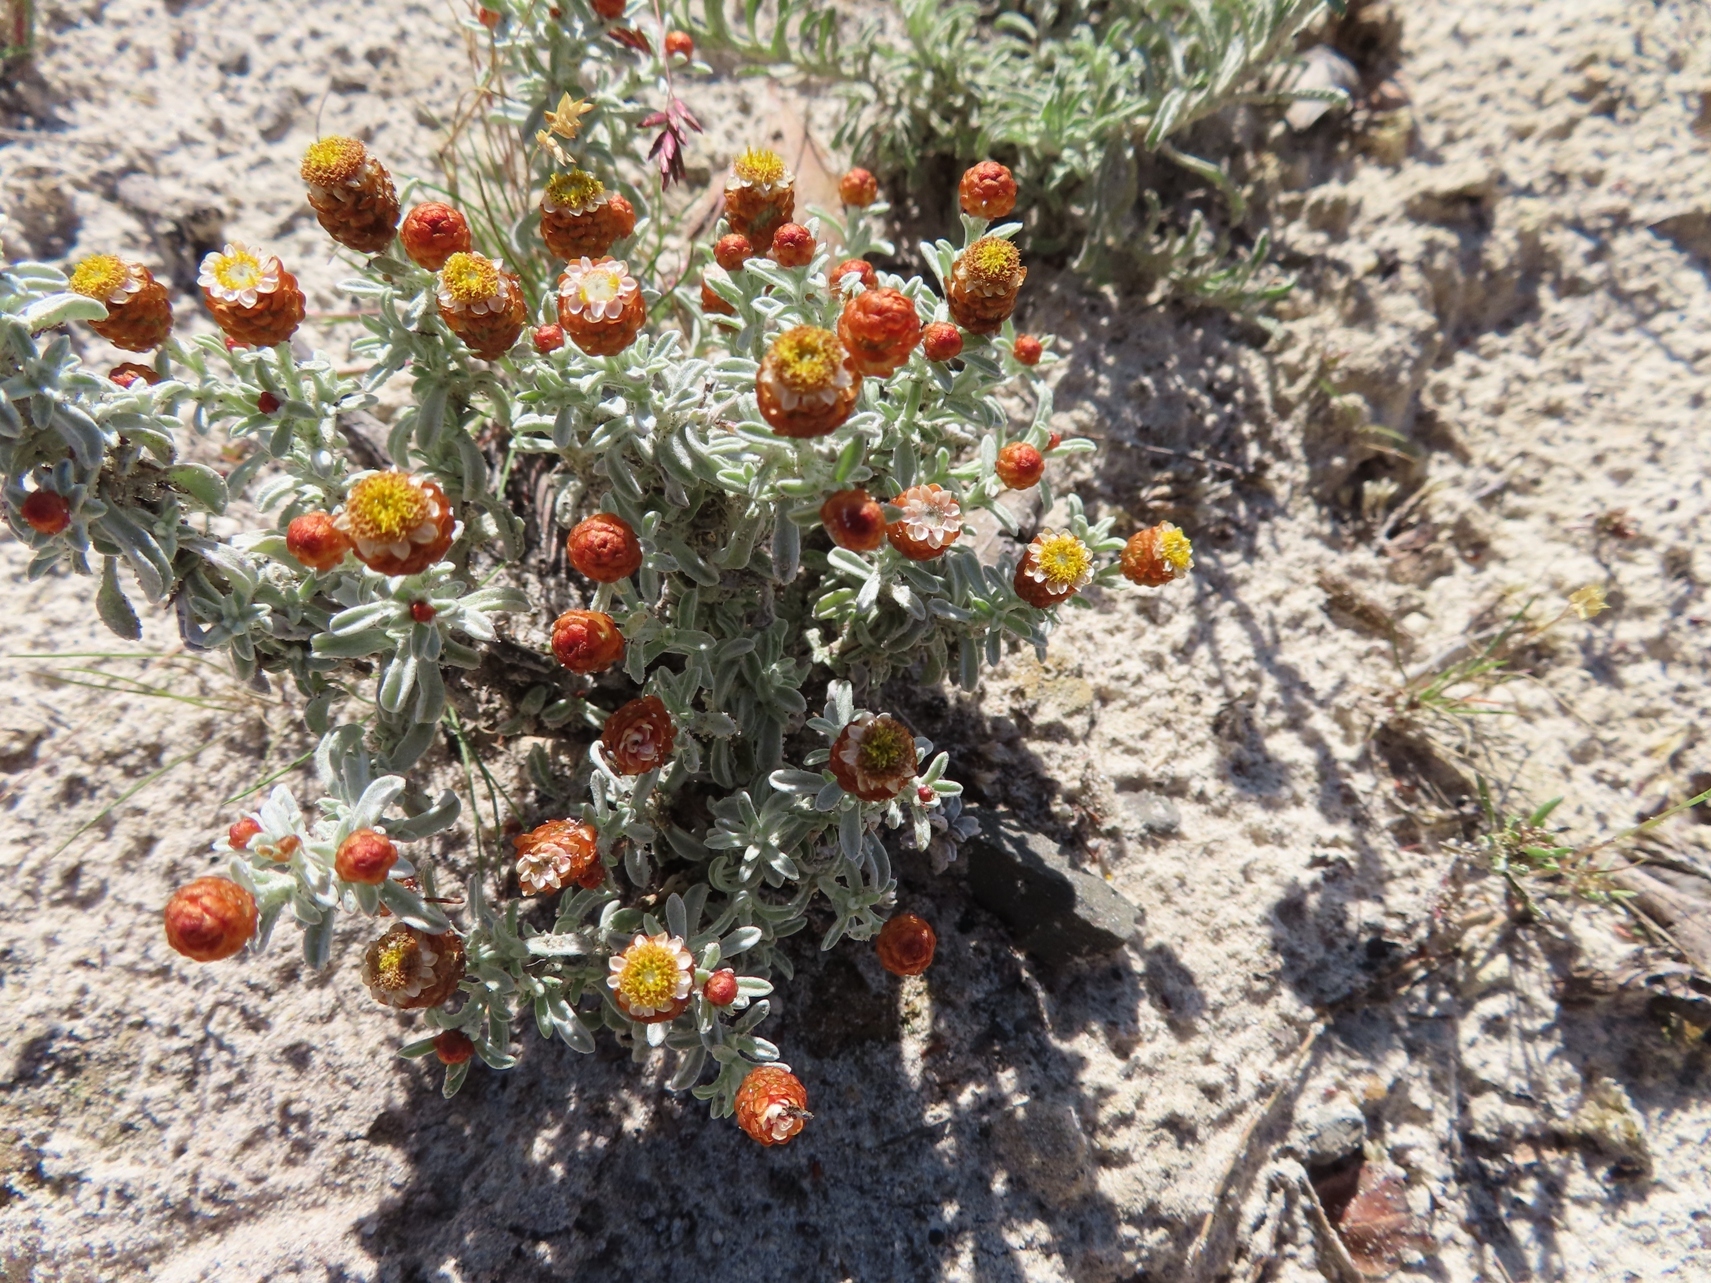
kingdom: Plantae
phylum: Tracheophyta
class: Magnoliopsida
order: Asterales
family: Asteraceae
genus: Helichrysum
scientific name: Helichrysum cochleariforme
